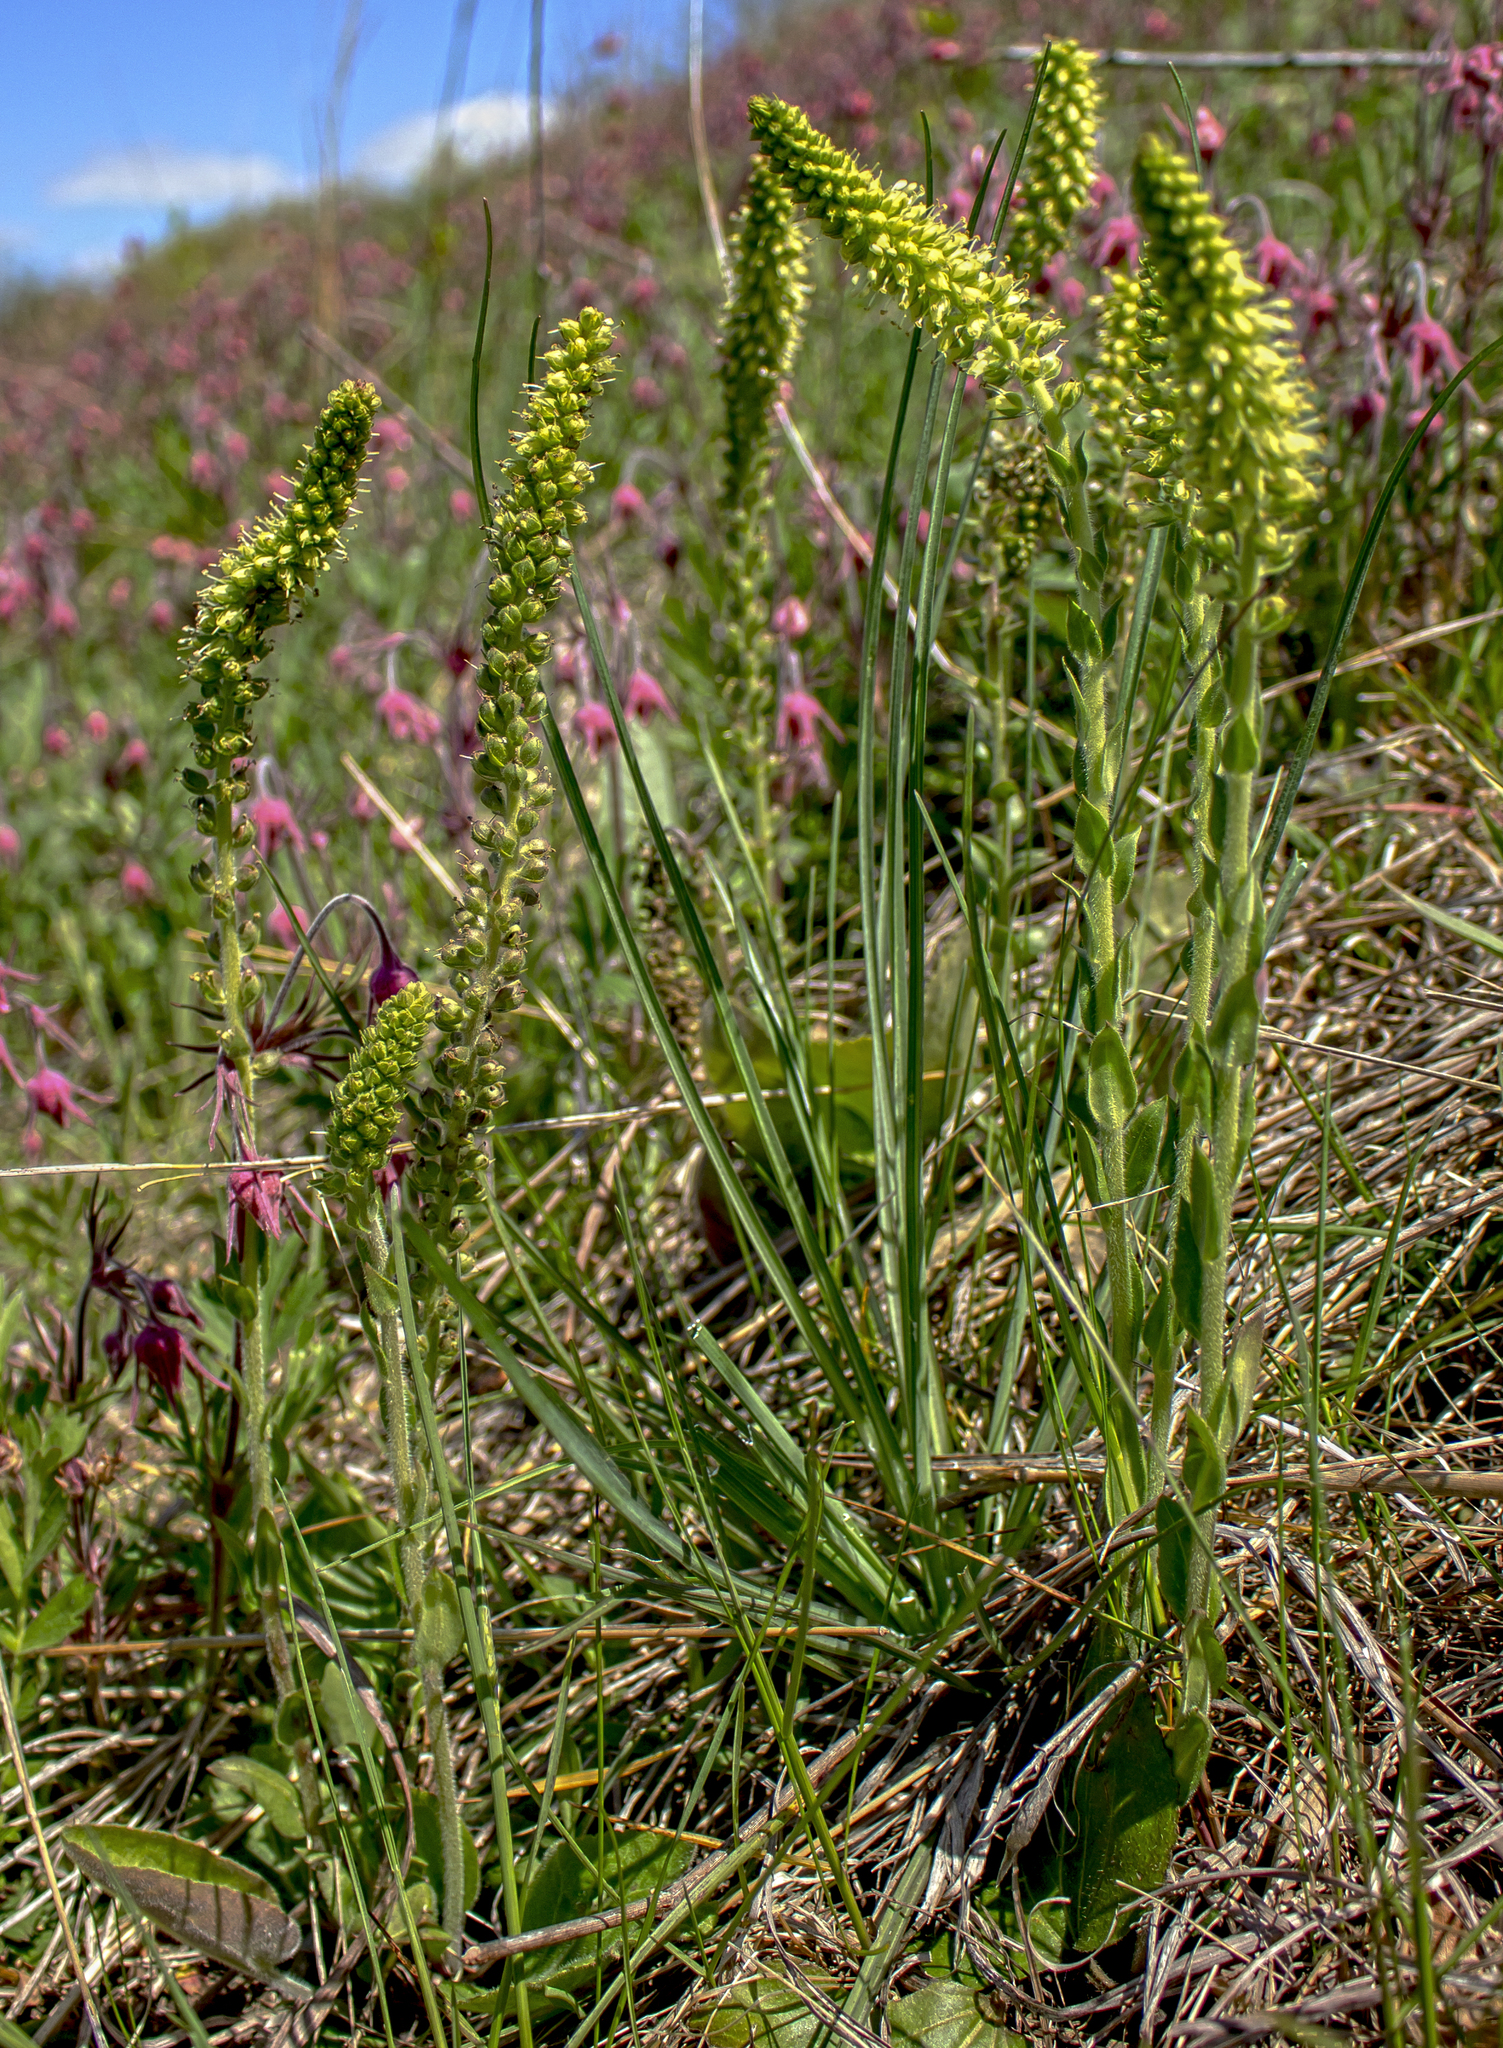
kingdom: Plantae
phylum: Tracheophyta
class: Magnoliopsida
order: Lamiales
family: Plantaginaceae
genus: Synthyris
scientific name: Synthyris bullii
